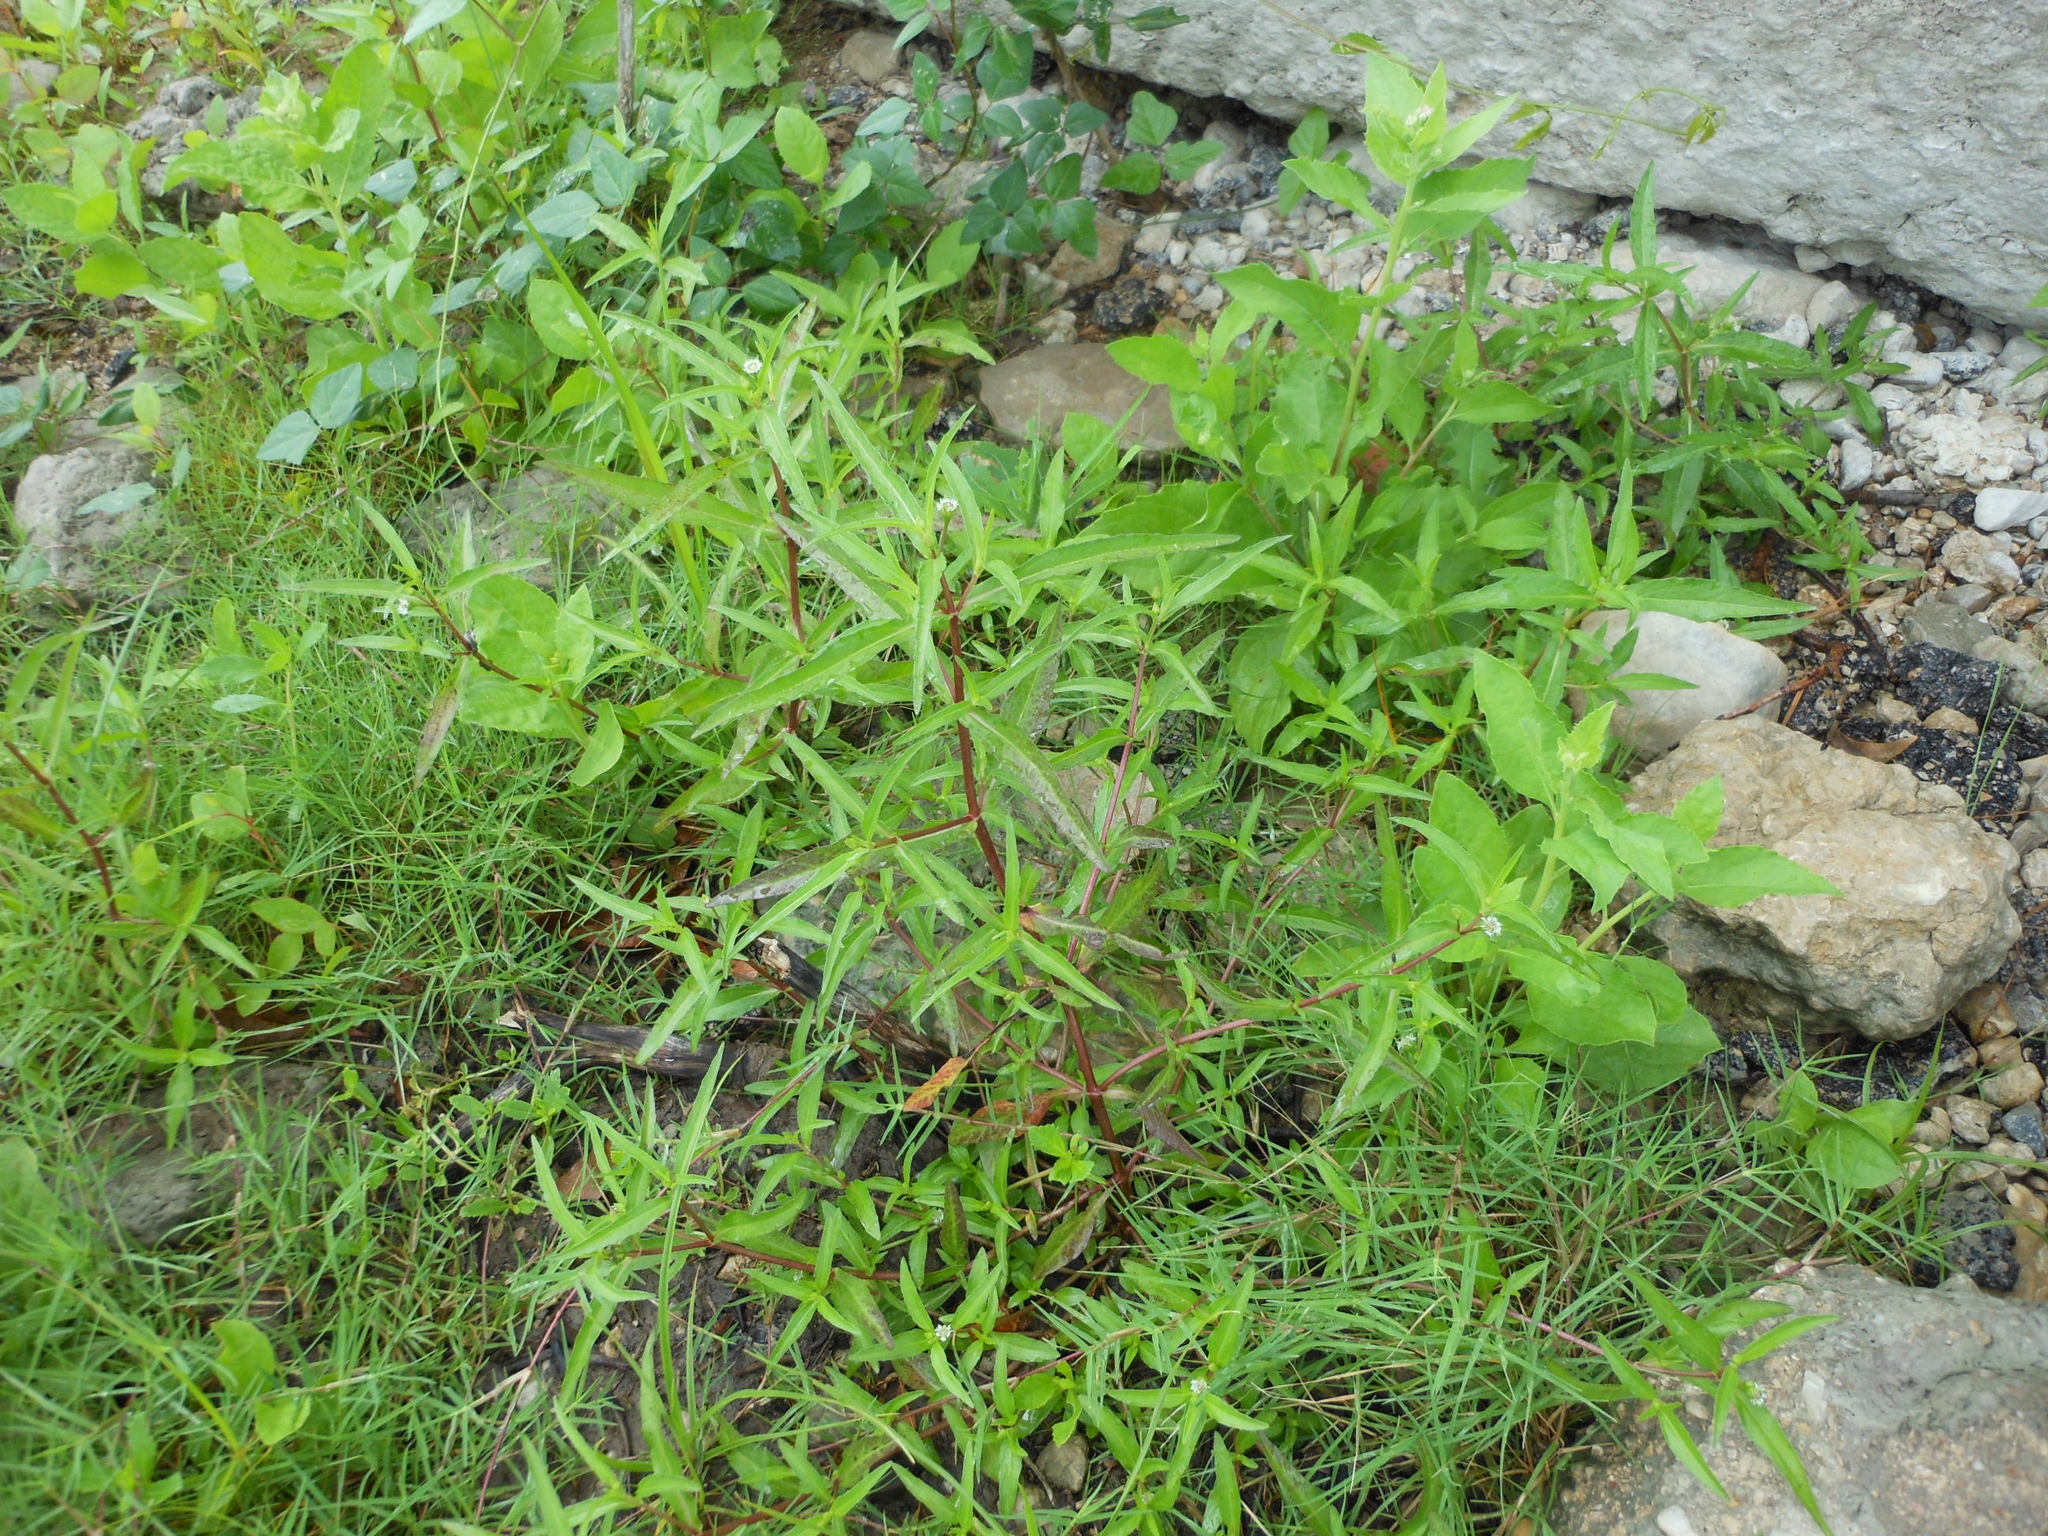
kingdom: Plantae
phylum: Tracheophyta
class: Magnoliopsida
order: Asterales
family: Asteraceae
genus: Eclipta
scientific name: Eclipta prostrata
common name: False daisy
